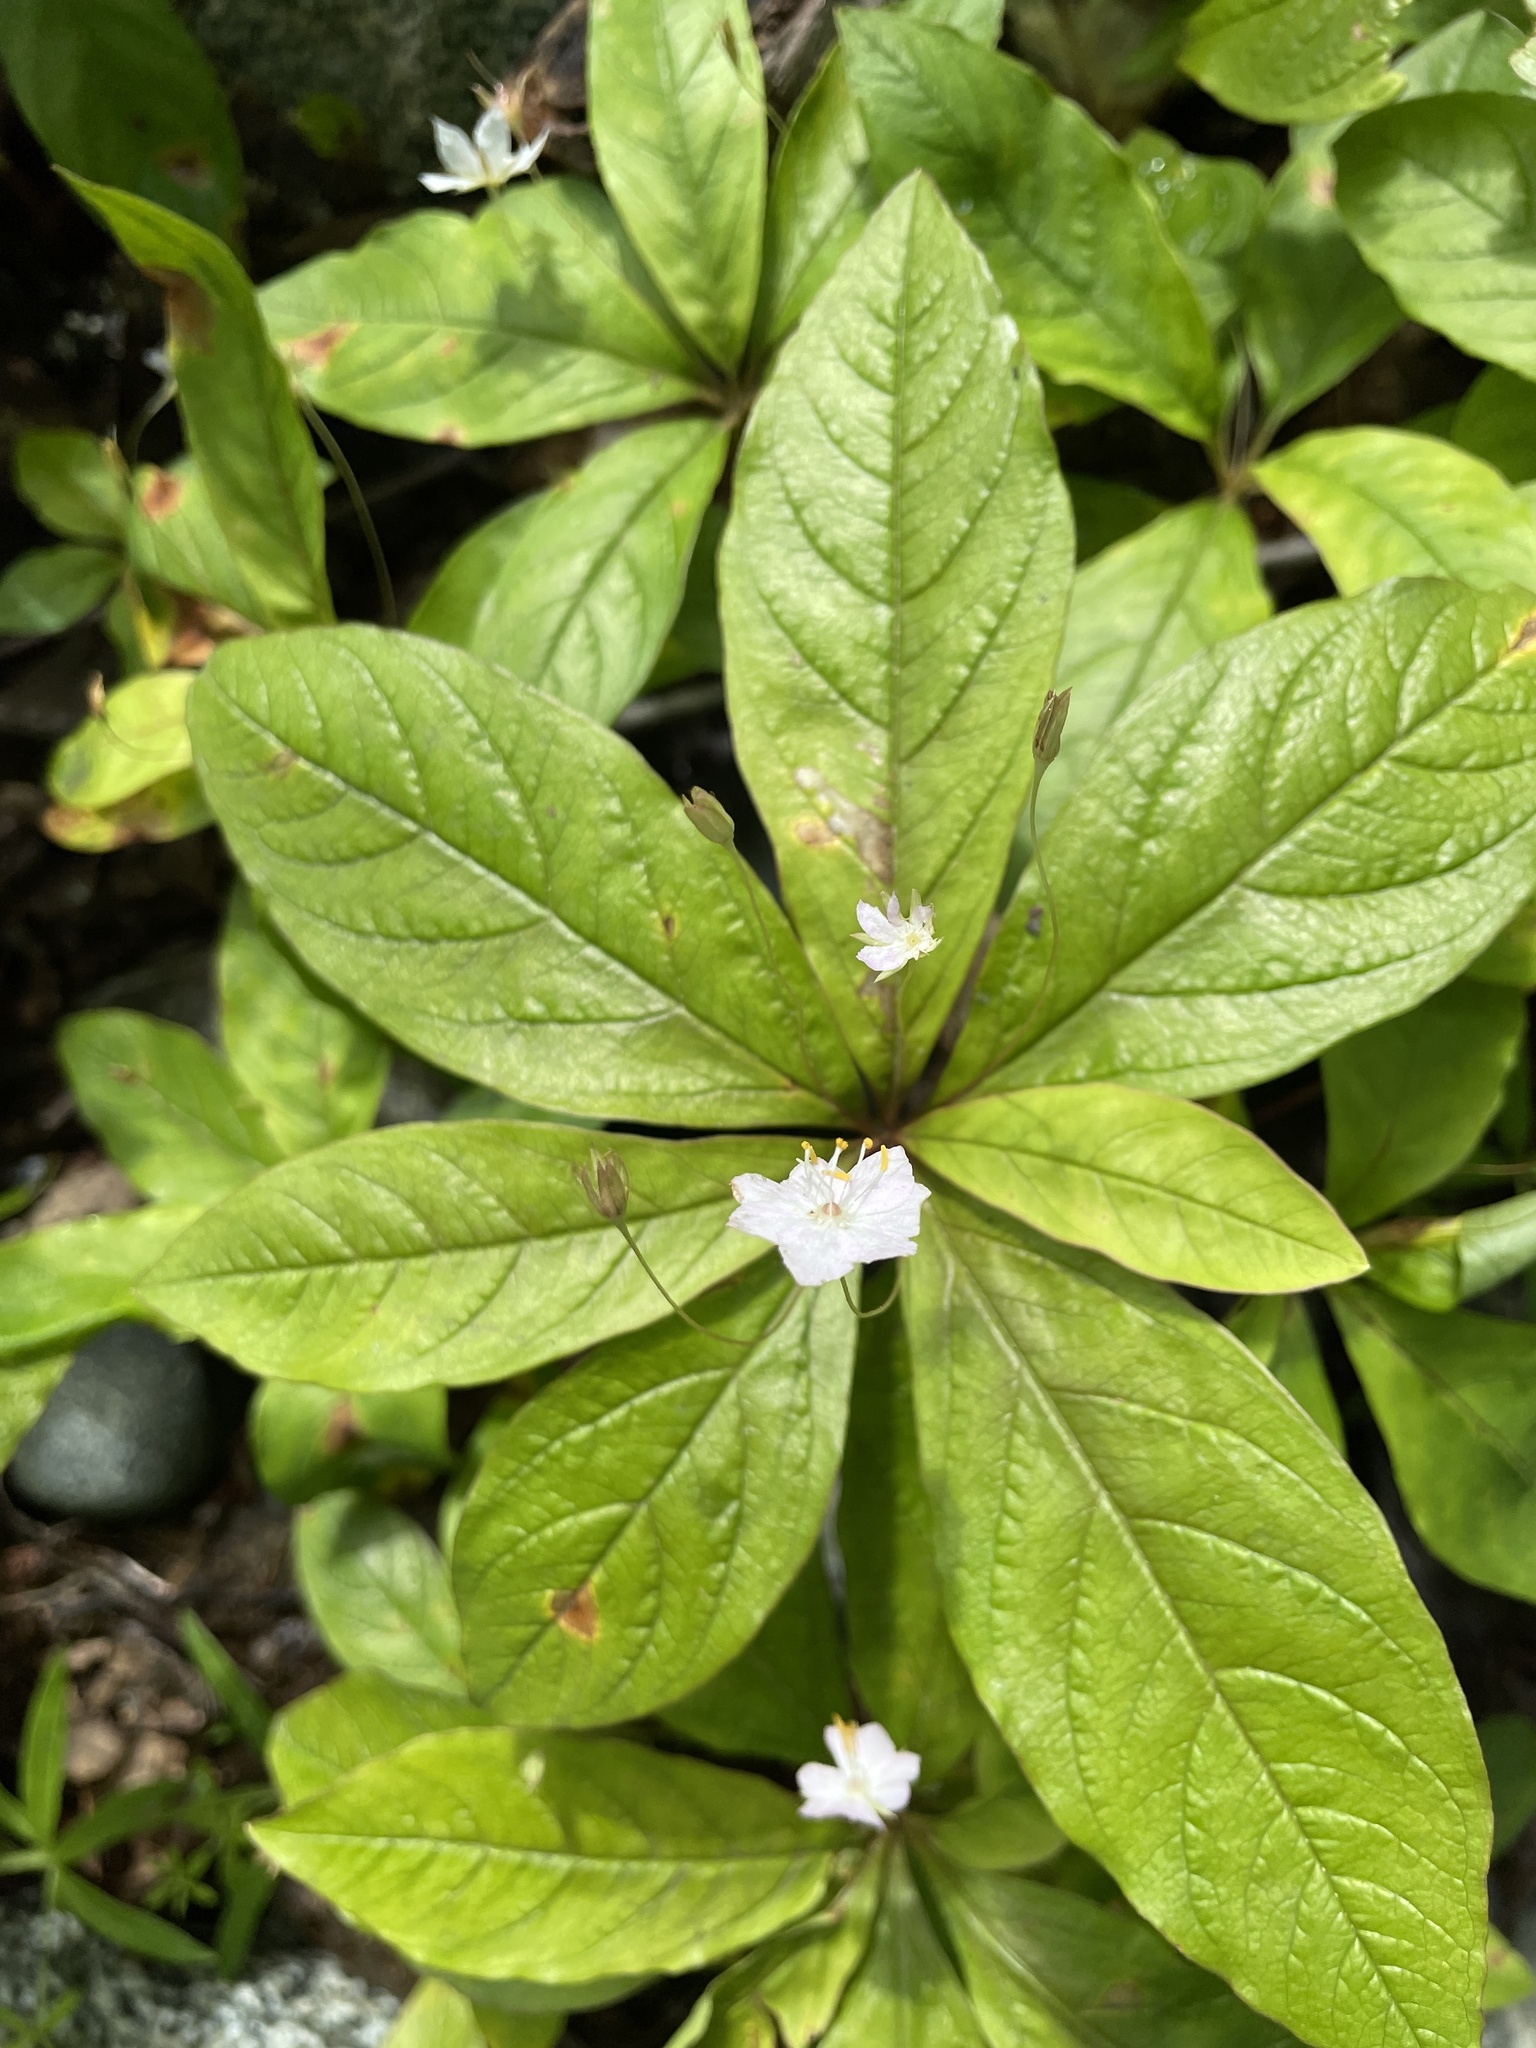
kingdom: Plantae
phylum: Tracheophyta
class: Magnoliopsida
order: Ericales
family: Primulaceae
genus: Lysimachia
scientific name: Lysimachia latifolia
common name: Pacific starflower
